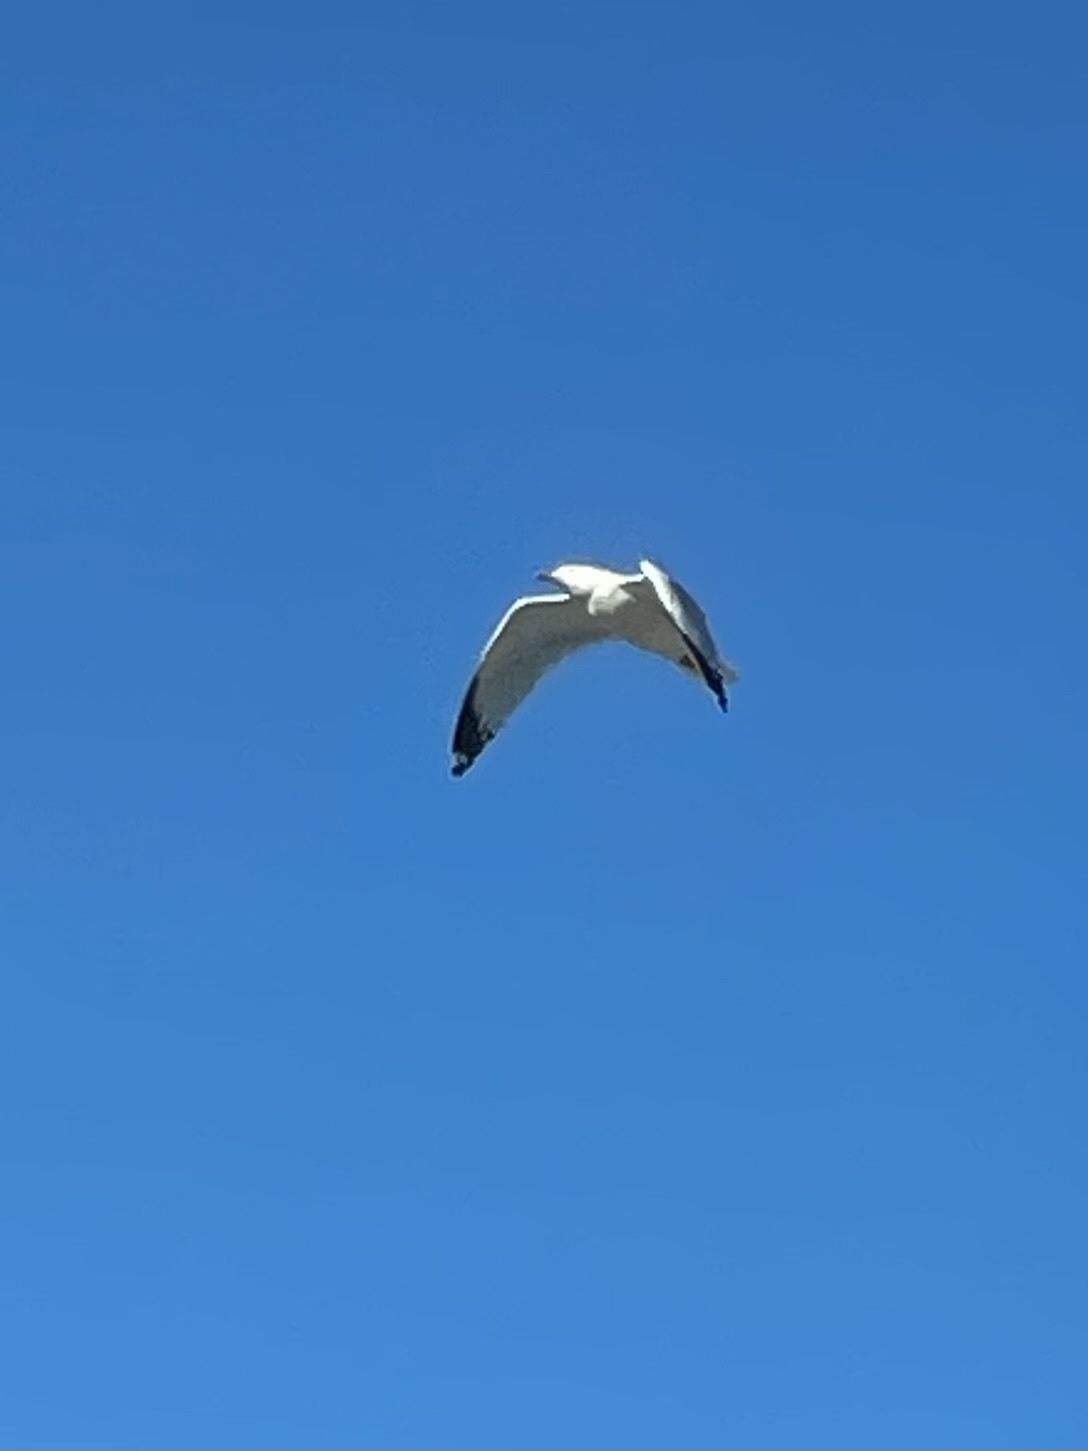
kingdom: Animalia
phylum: Chordata
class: Aves
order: Charadriiformes
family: Laridae
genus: Larus
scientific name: Larus delawarensis
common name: Ring-billed gull
